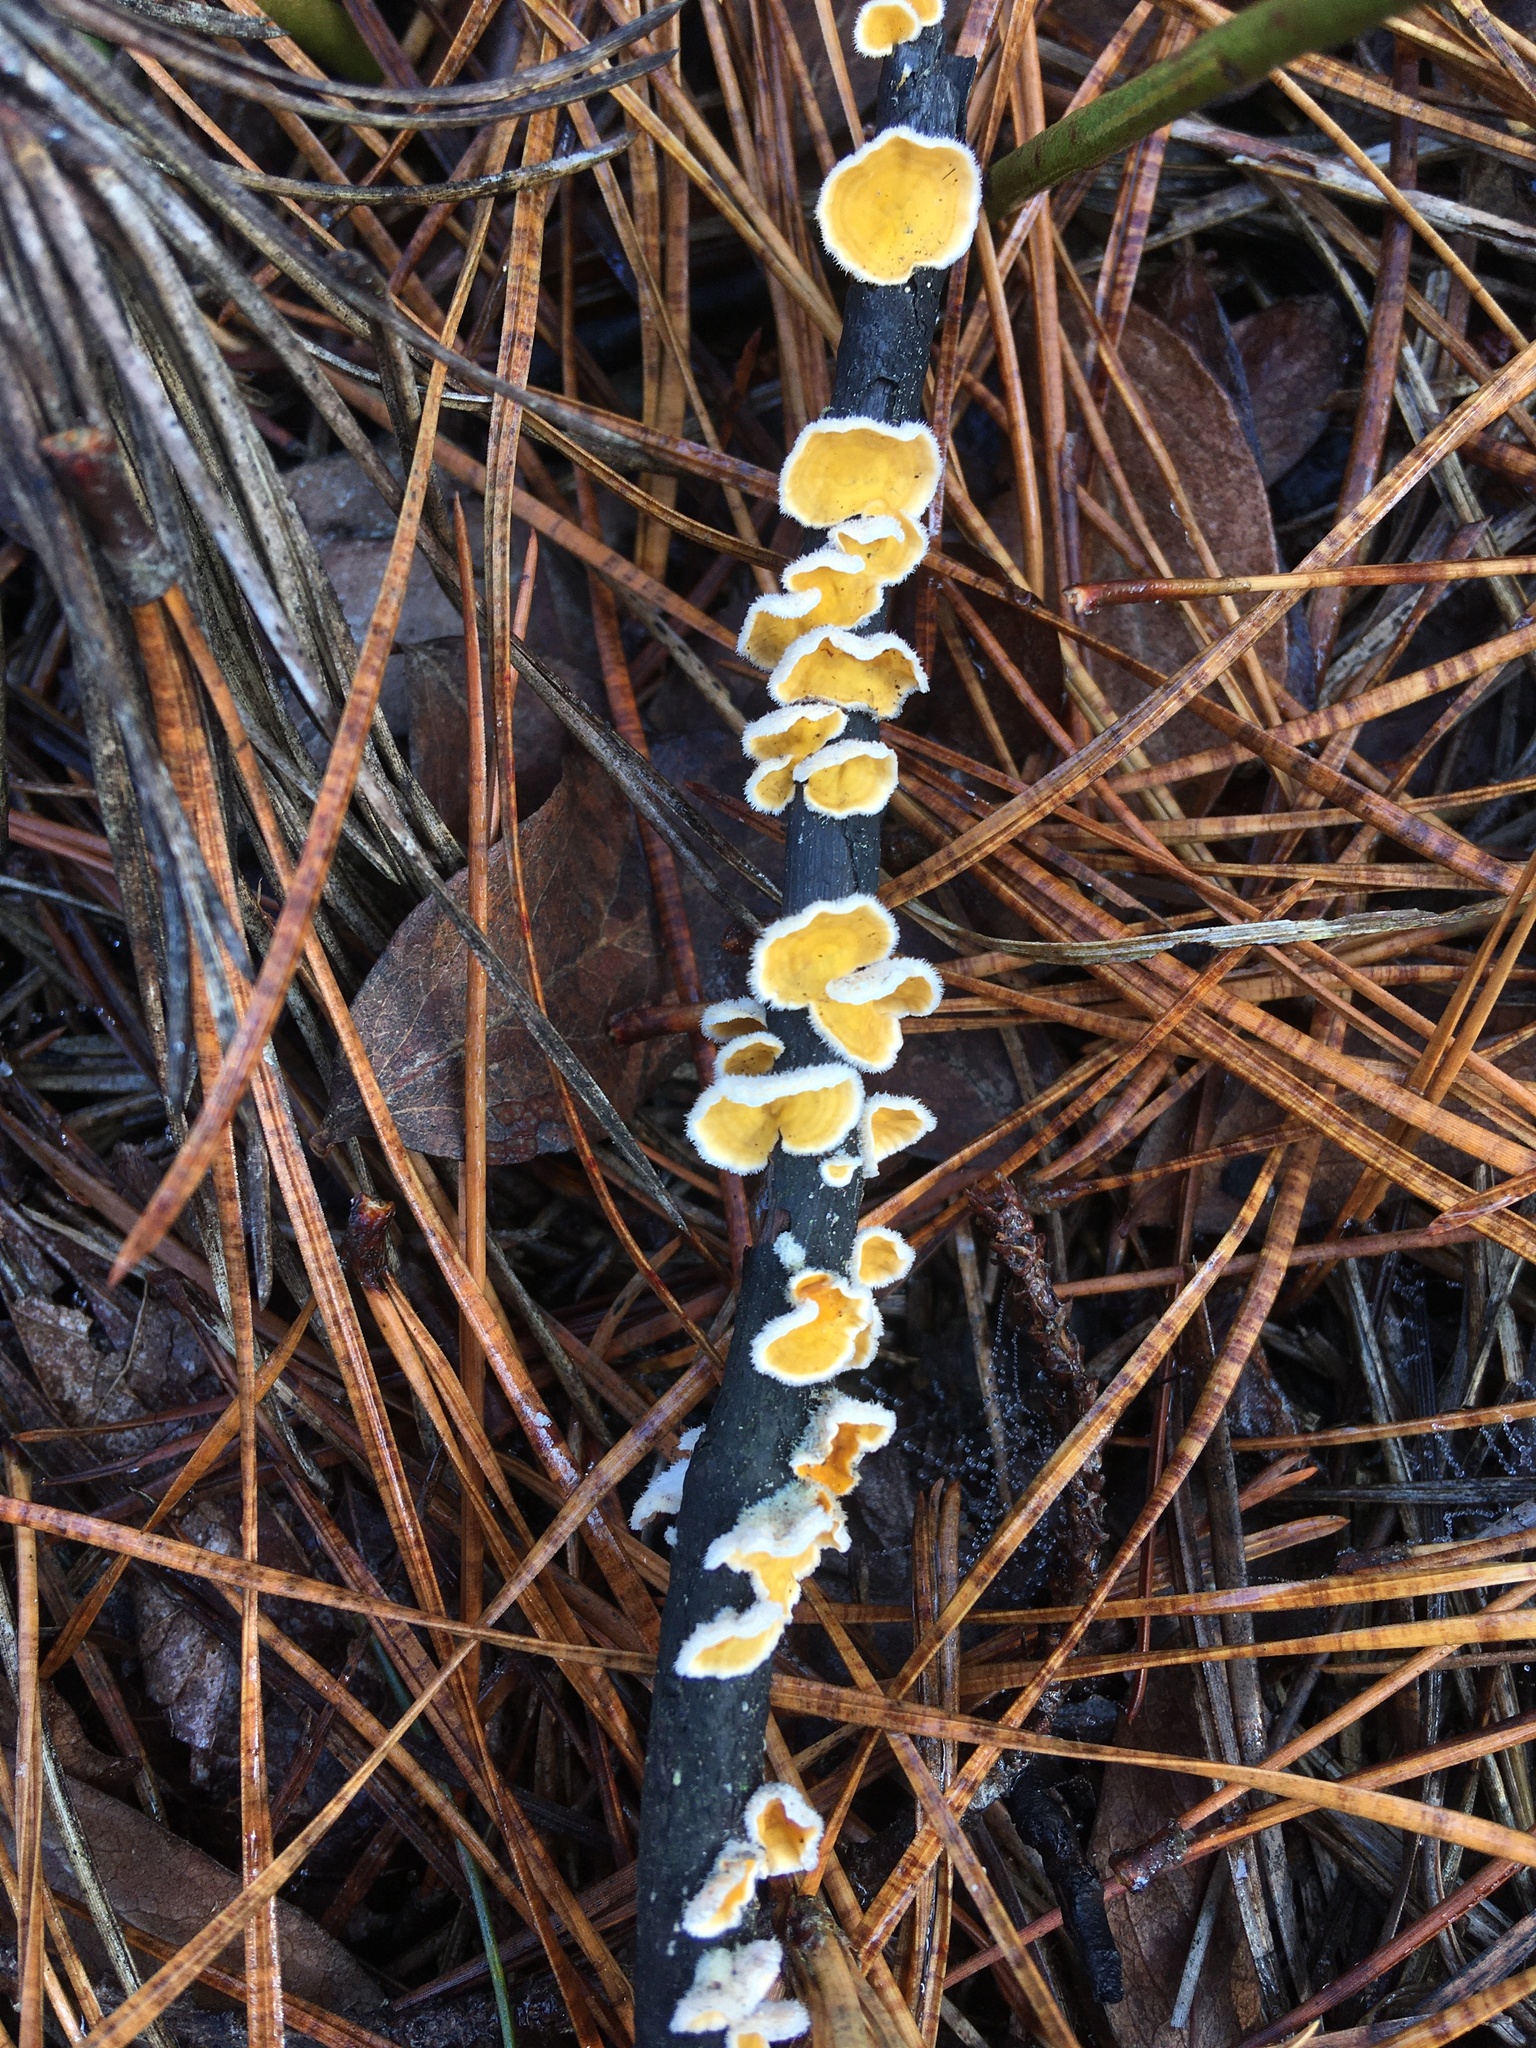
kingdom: Fungi
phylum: Basidiomycota
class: Agaricomycetes
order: Russulales
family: Stereaceae
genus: Stereum
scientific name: Stereum ochraceoflavum
